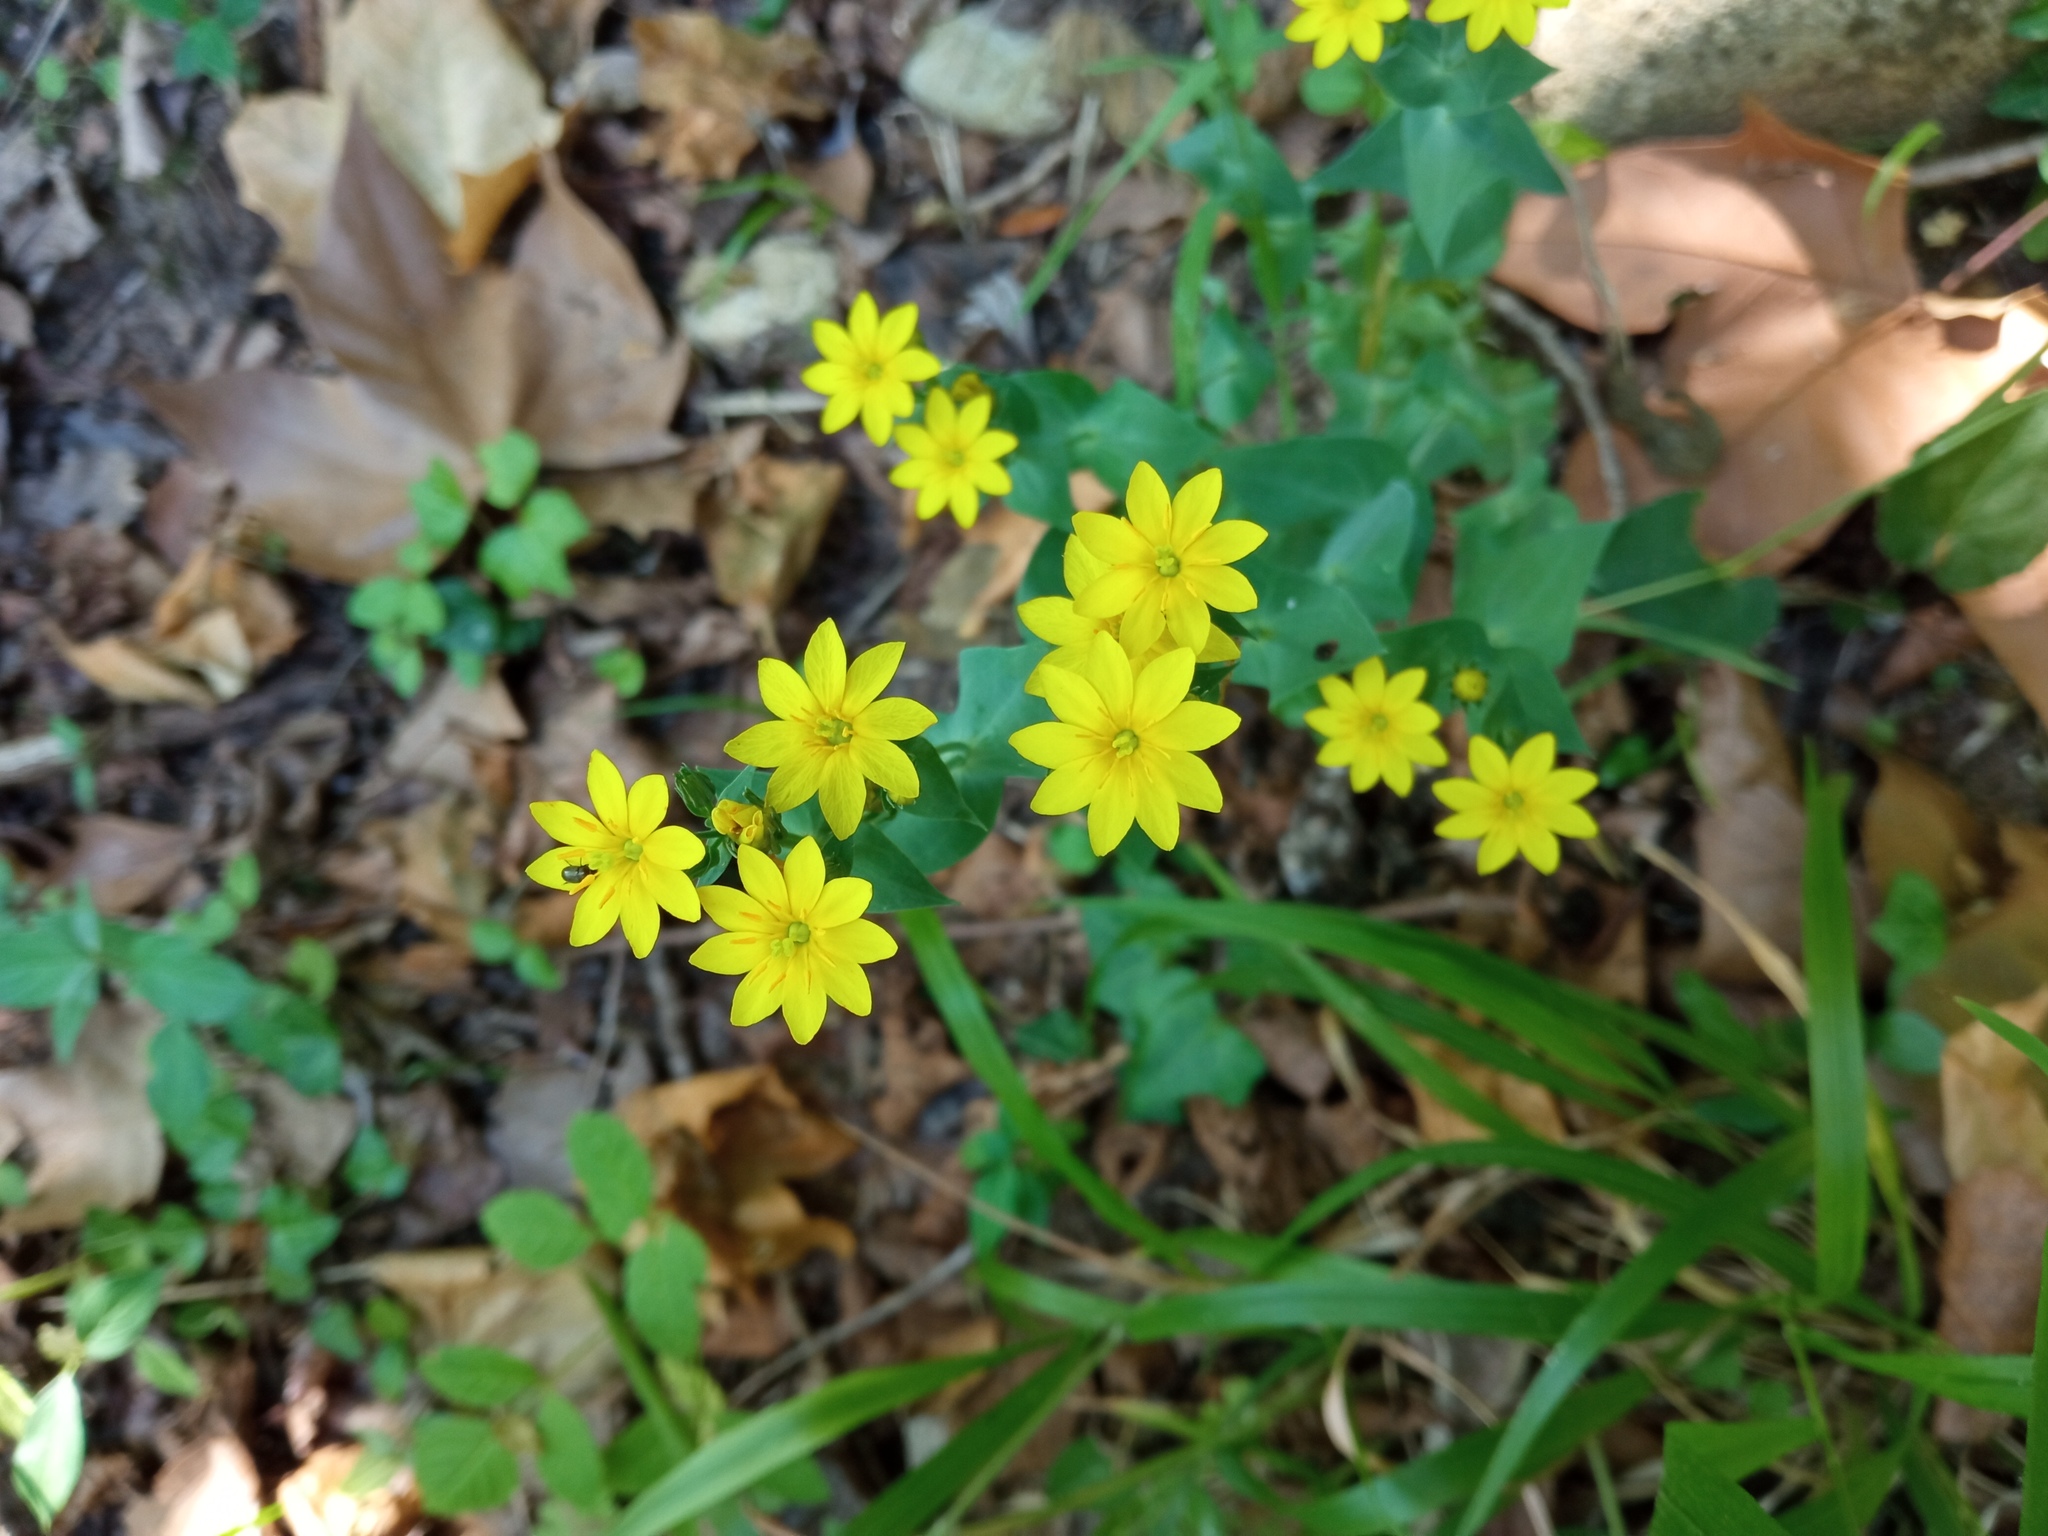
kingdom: Plantae
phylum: Tracheophyta
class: Magnoliopsida
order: Gentianales
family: Gentianaceae
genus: Blackstonia
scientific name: Blackstonia perfoliata
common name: Yellow-wort
